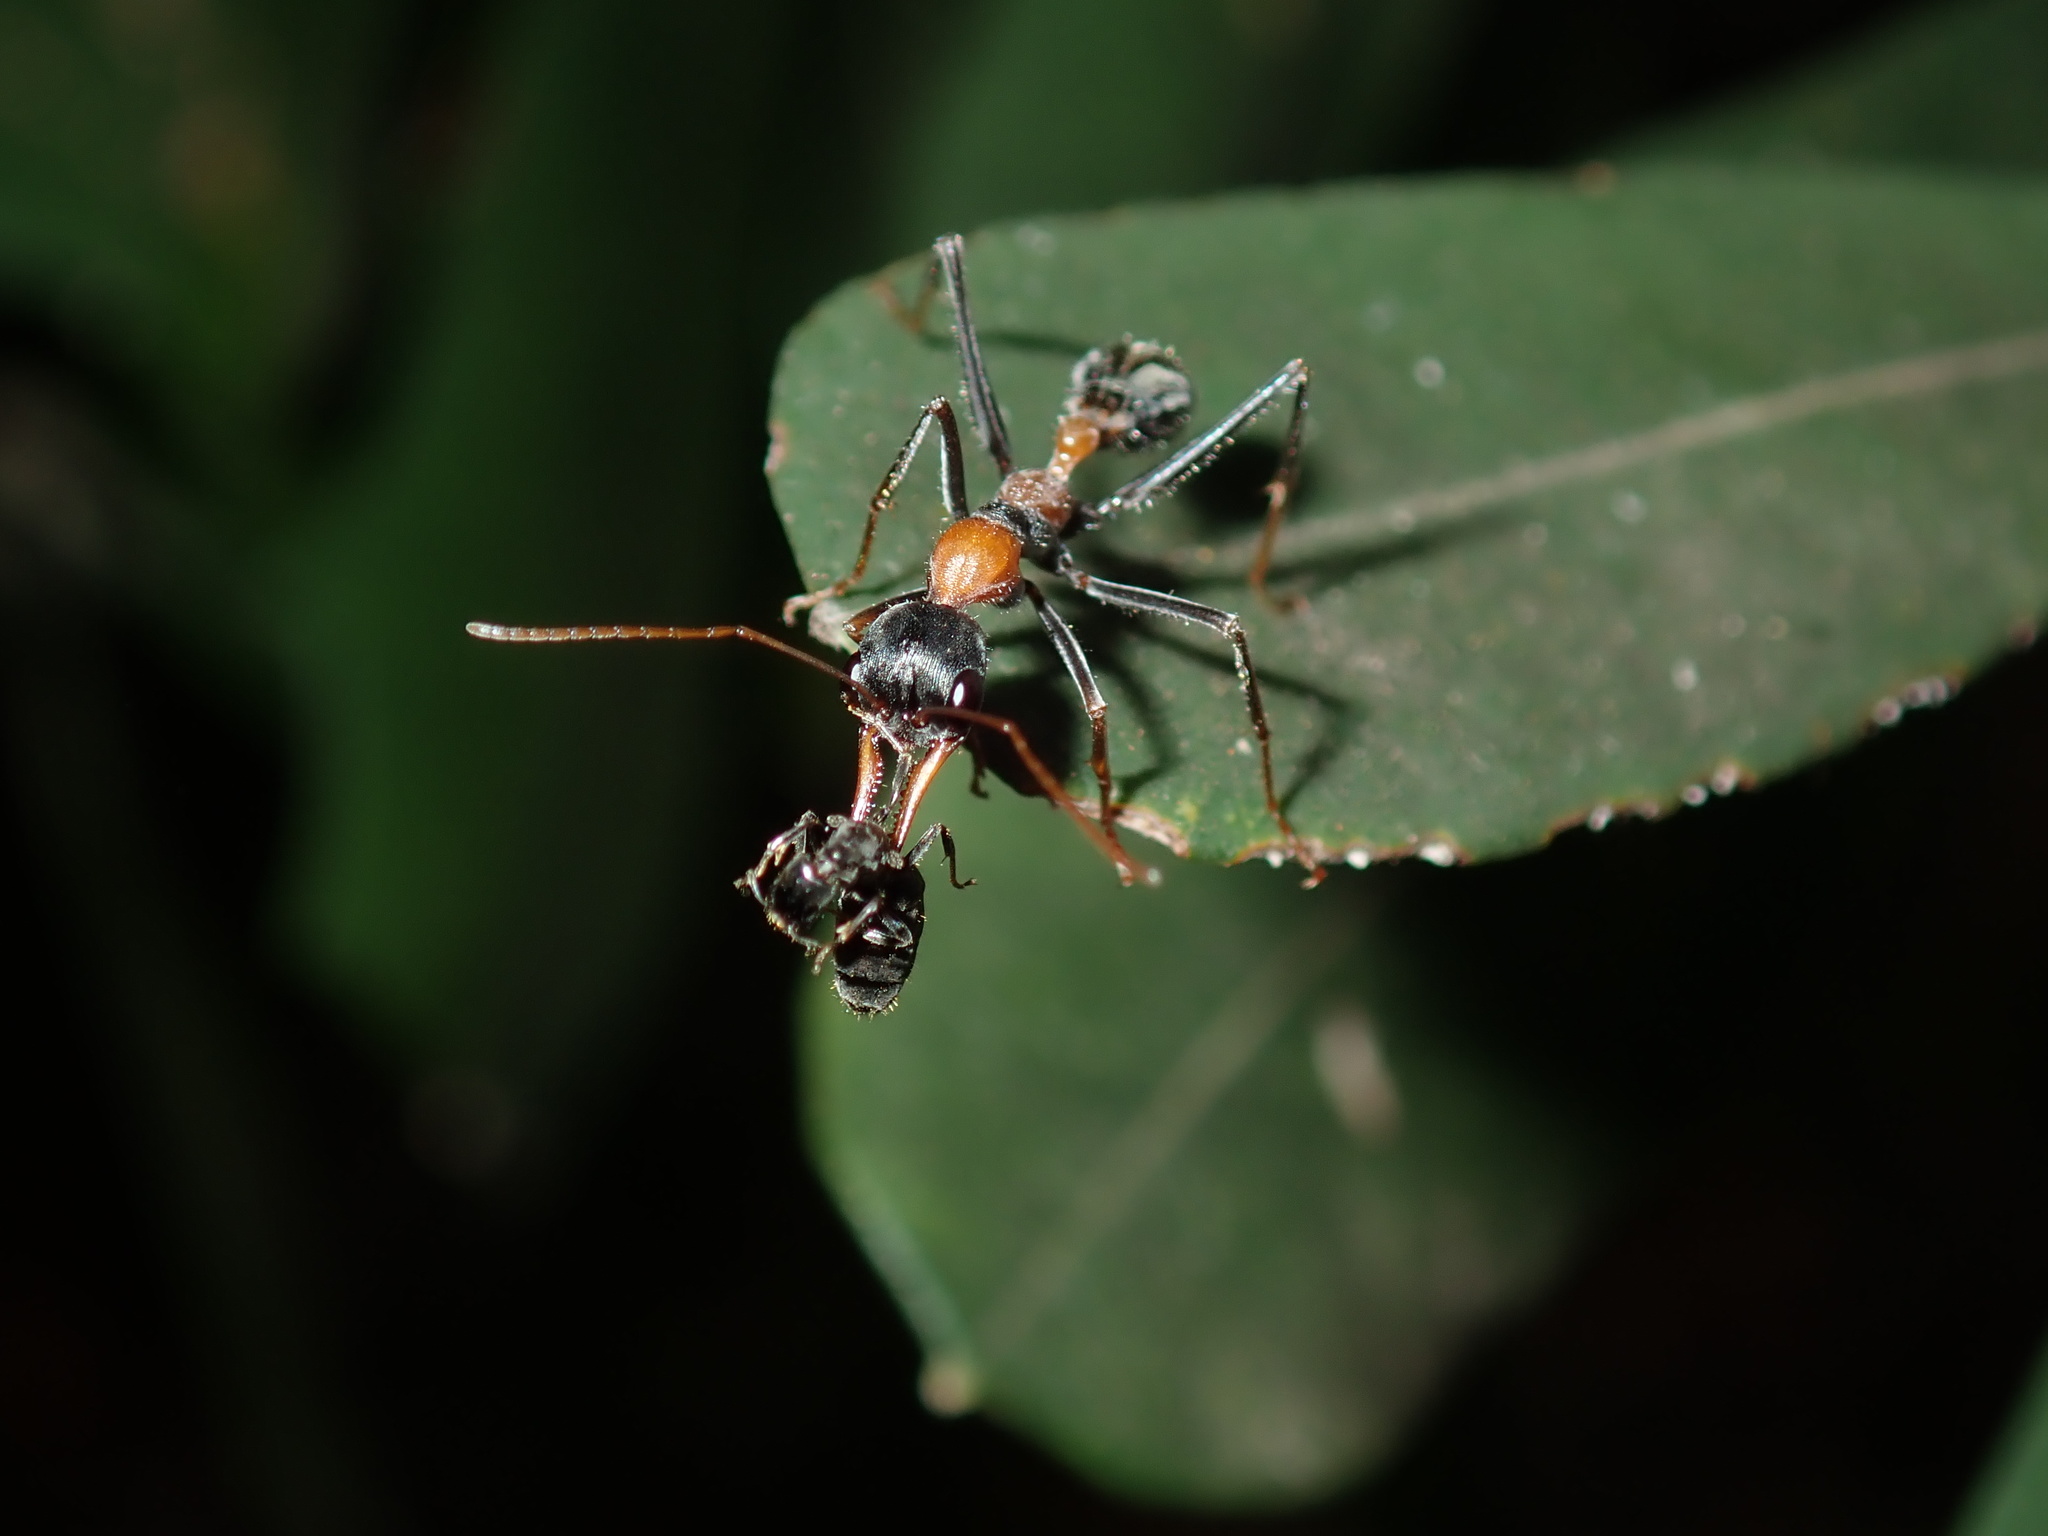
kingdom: Animalia
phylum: Arthropoda
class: Insecta
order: Hymenoptera
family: Formicidae
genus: Myrmecia
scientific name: Myrmecia nigrocincta
